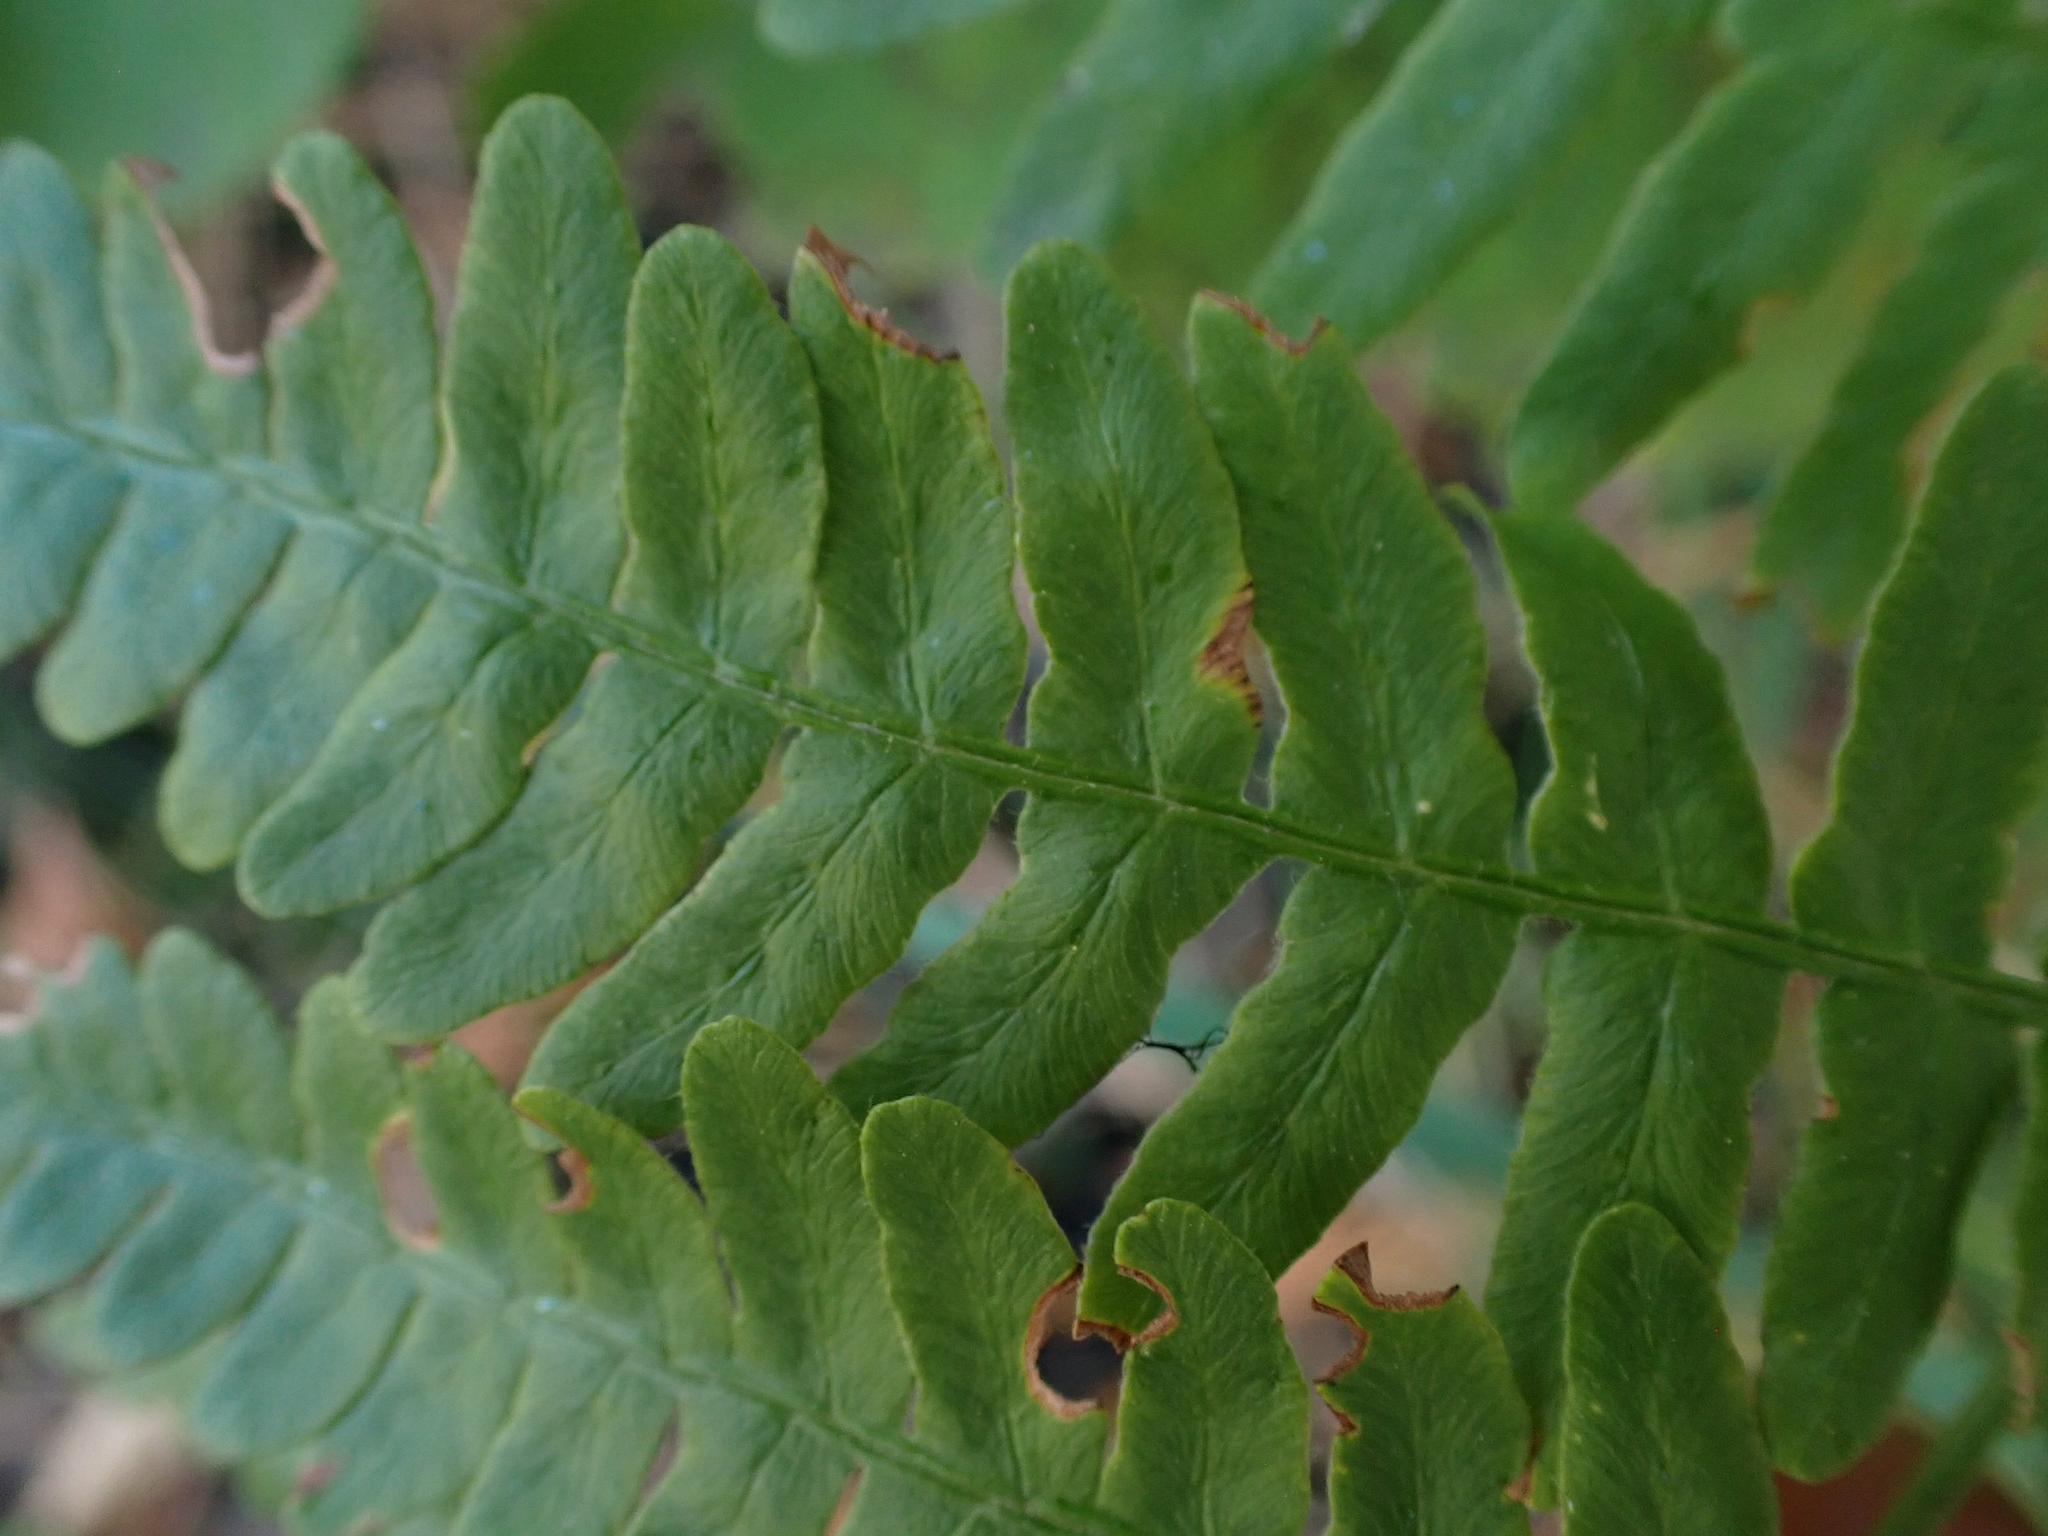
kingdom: Plantae
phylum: Tracheophyta
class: Polypodiopsida
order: Polypodiales
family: Dennstaedtiaceae
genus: Pteridium
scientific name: Pteridium aquilinum
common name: Bracken
